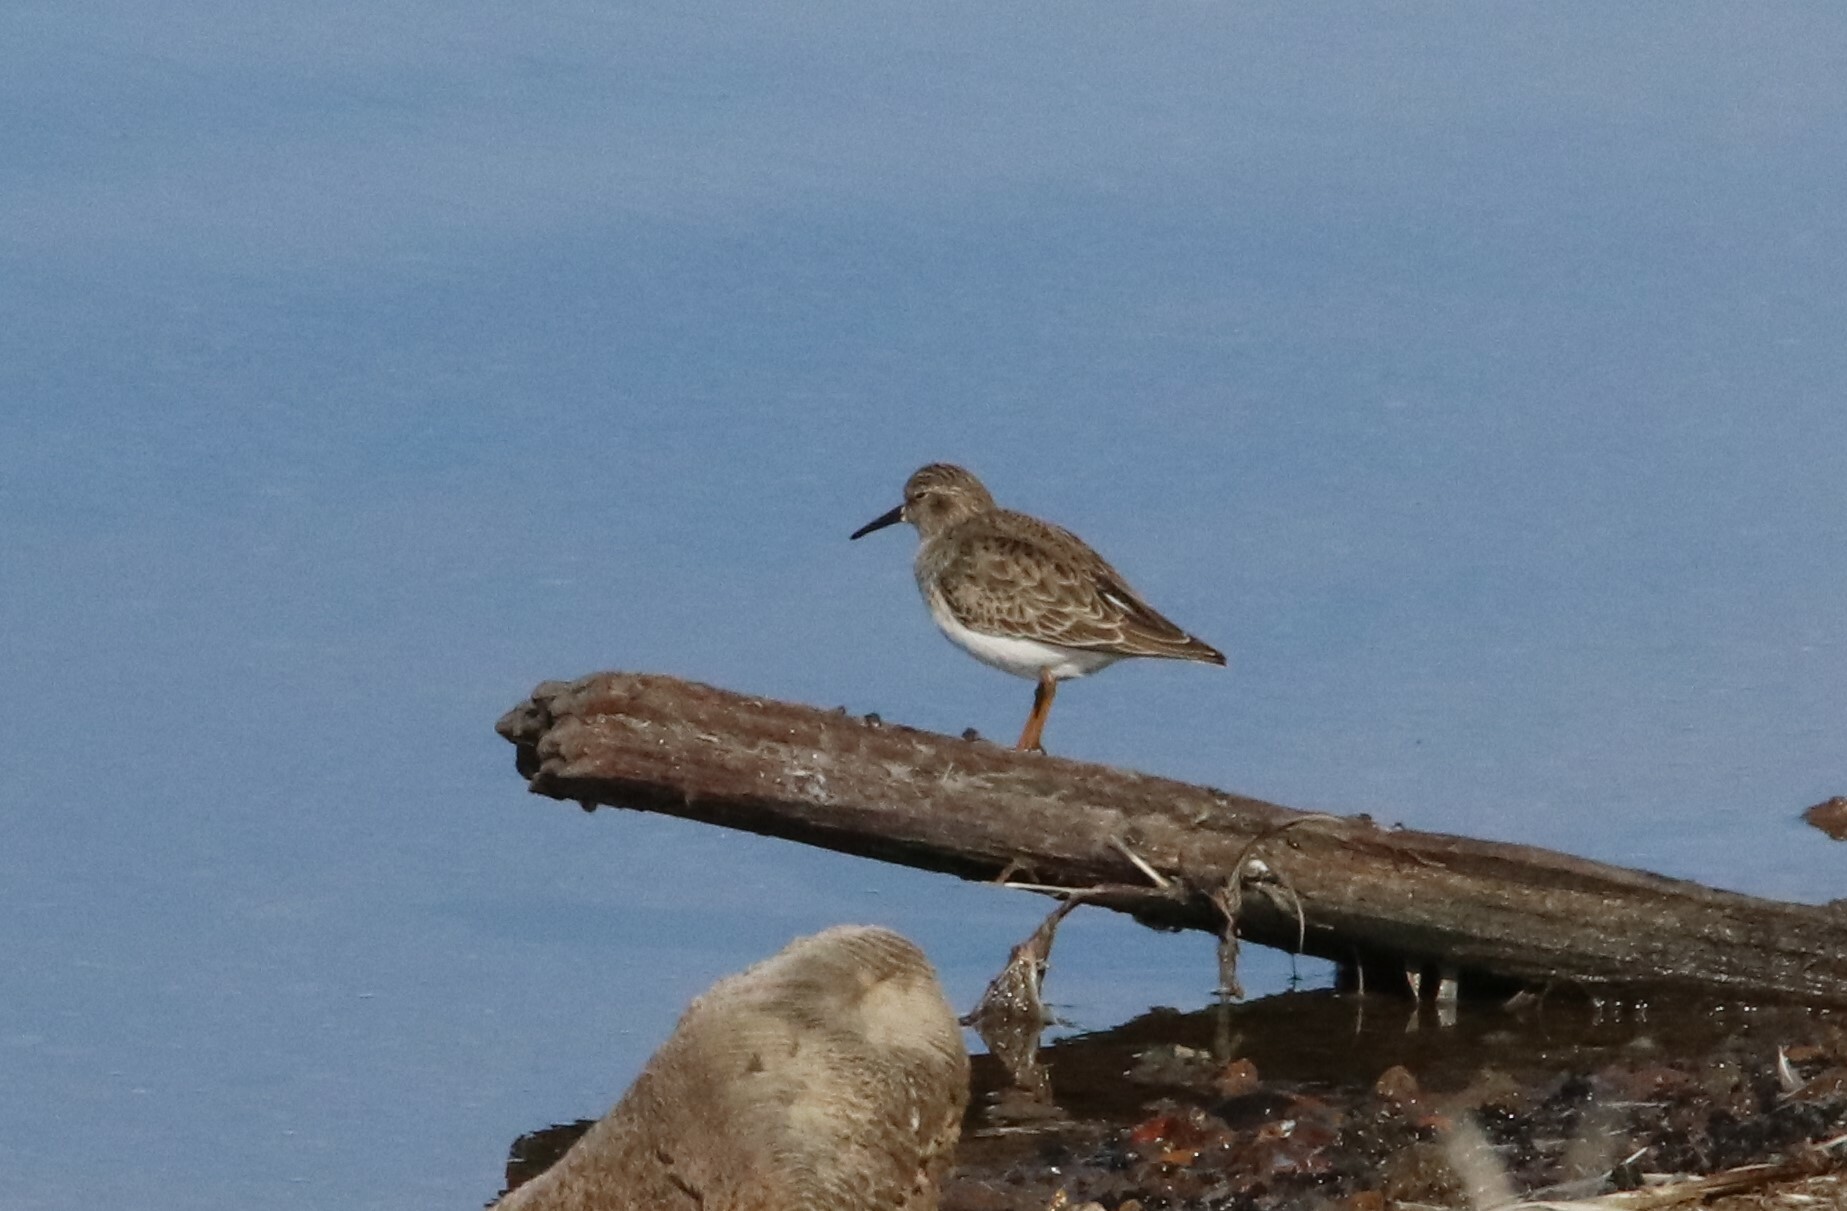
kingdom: Animalia
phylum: Chordata
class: Aves
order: Charadriiformes
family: Scolopacidae
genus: Calidris
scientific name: Calidris minutilla
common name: Least sandpiper
